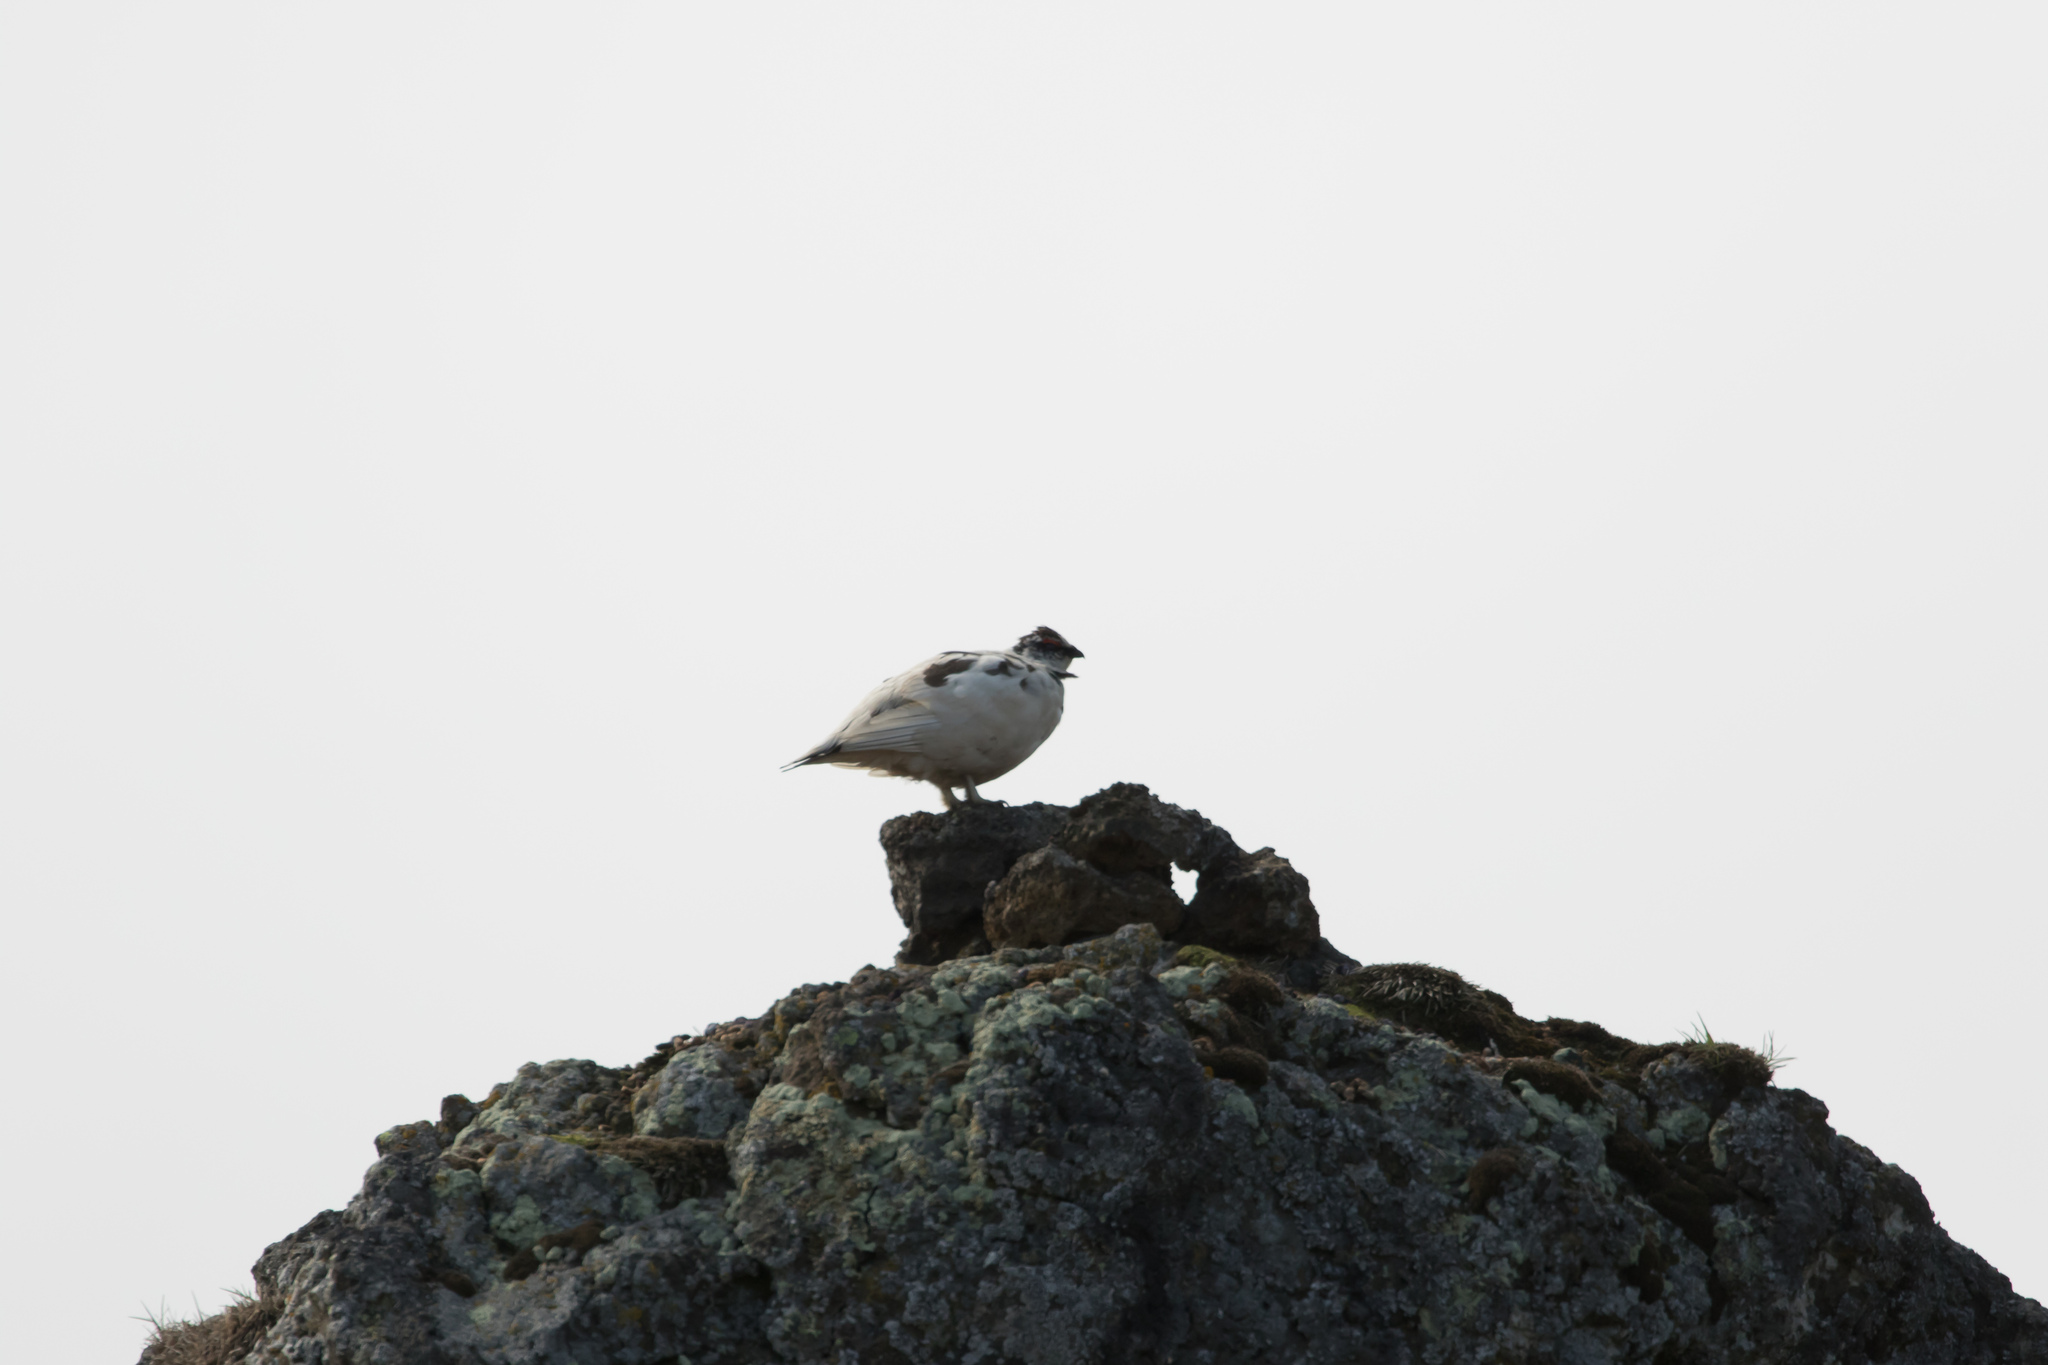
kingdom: Animalia
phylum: Chordata
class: Aves
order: Galliformes
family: Phasianidae
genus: Lagopus
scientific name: Lagopus muta
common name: Rock ptarmigan
